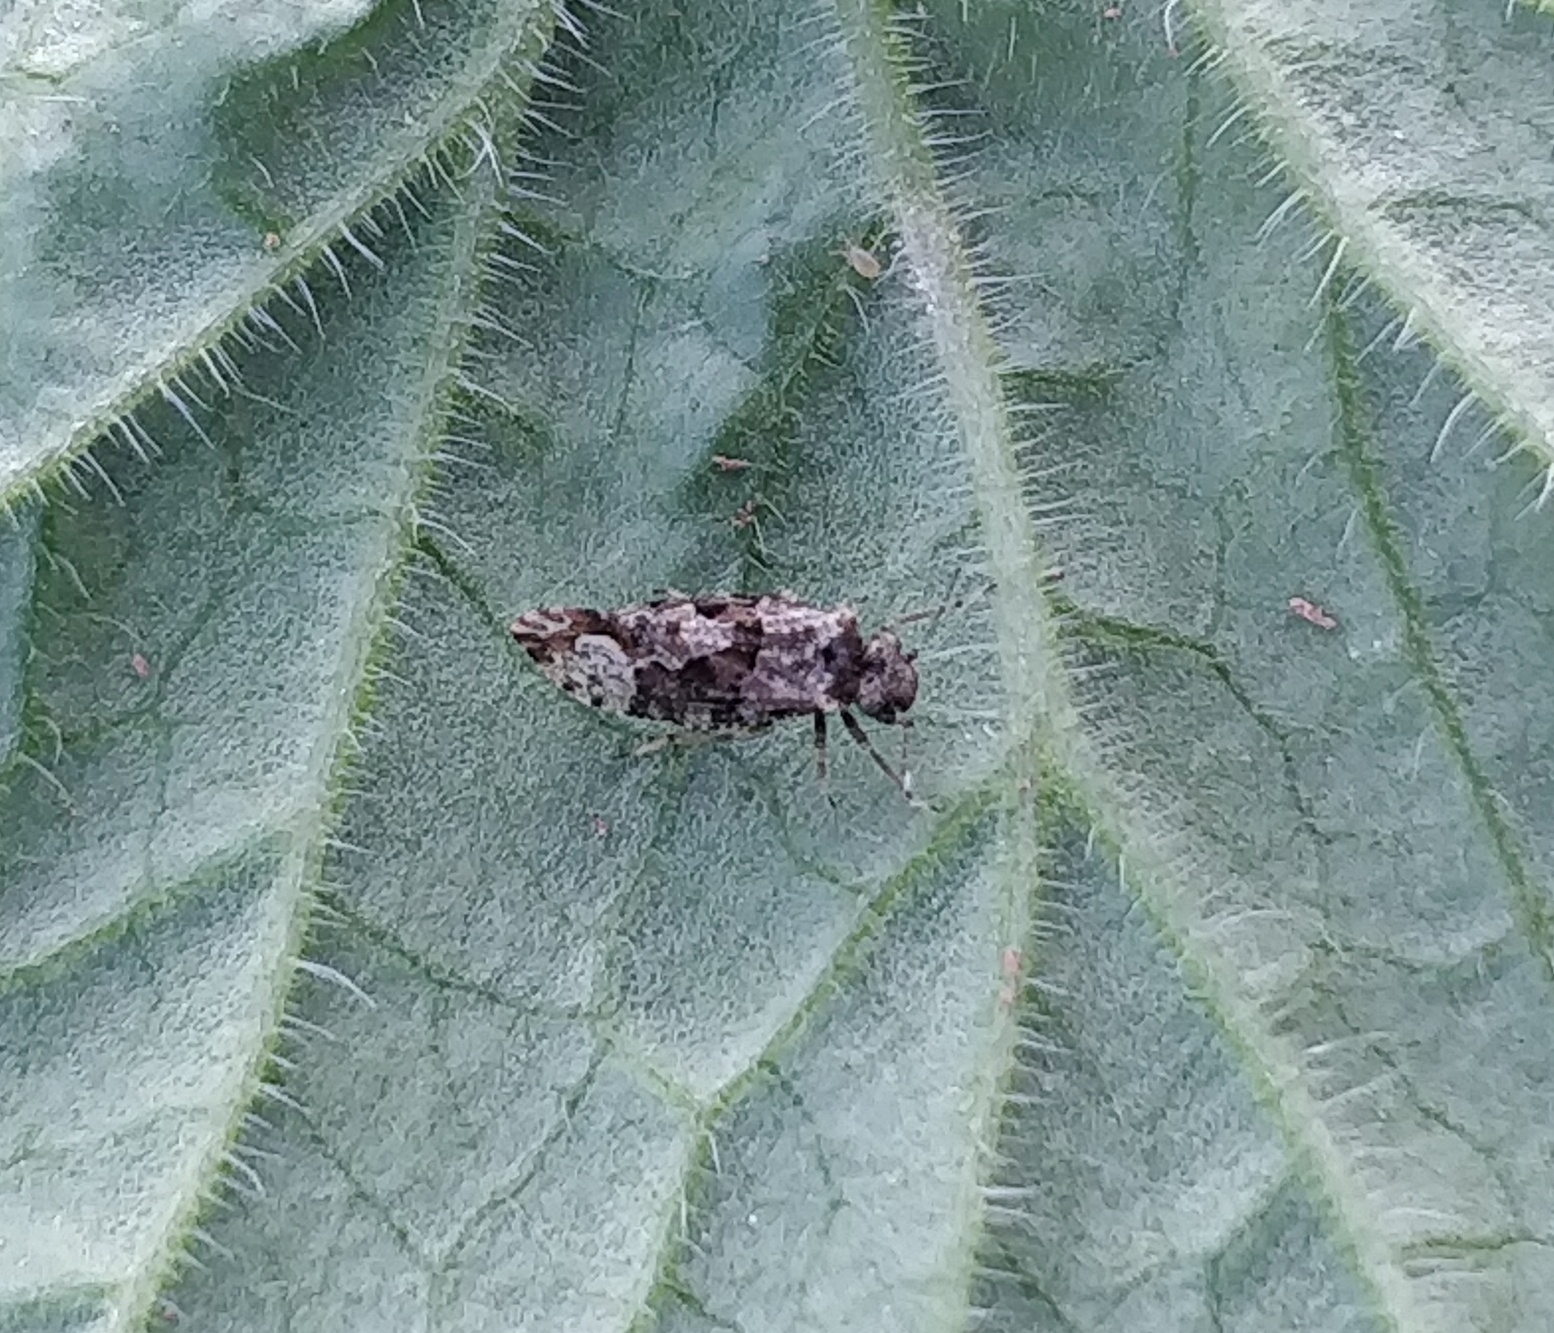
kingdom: Animalia
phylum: Arthropoda
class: Insecta
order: Psocodea
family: Myopsocidae
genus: Myopsocus
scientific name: Myopsocus eatoni
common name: Mouse-like bark louse
